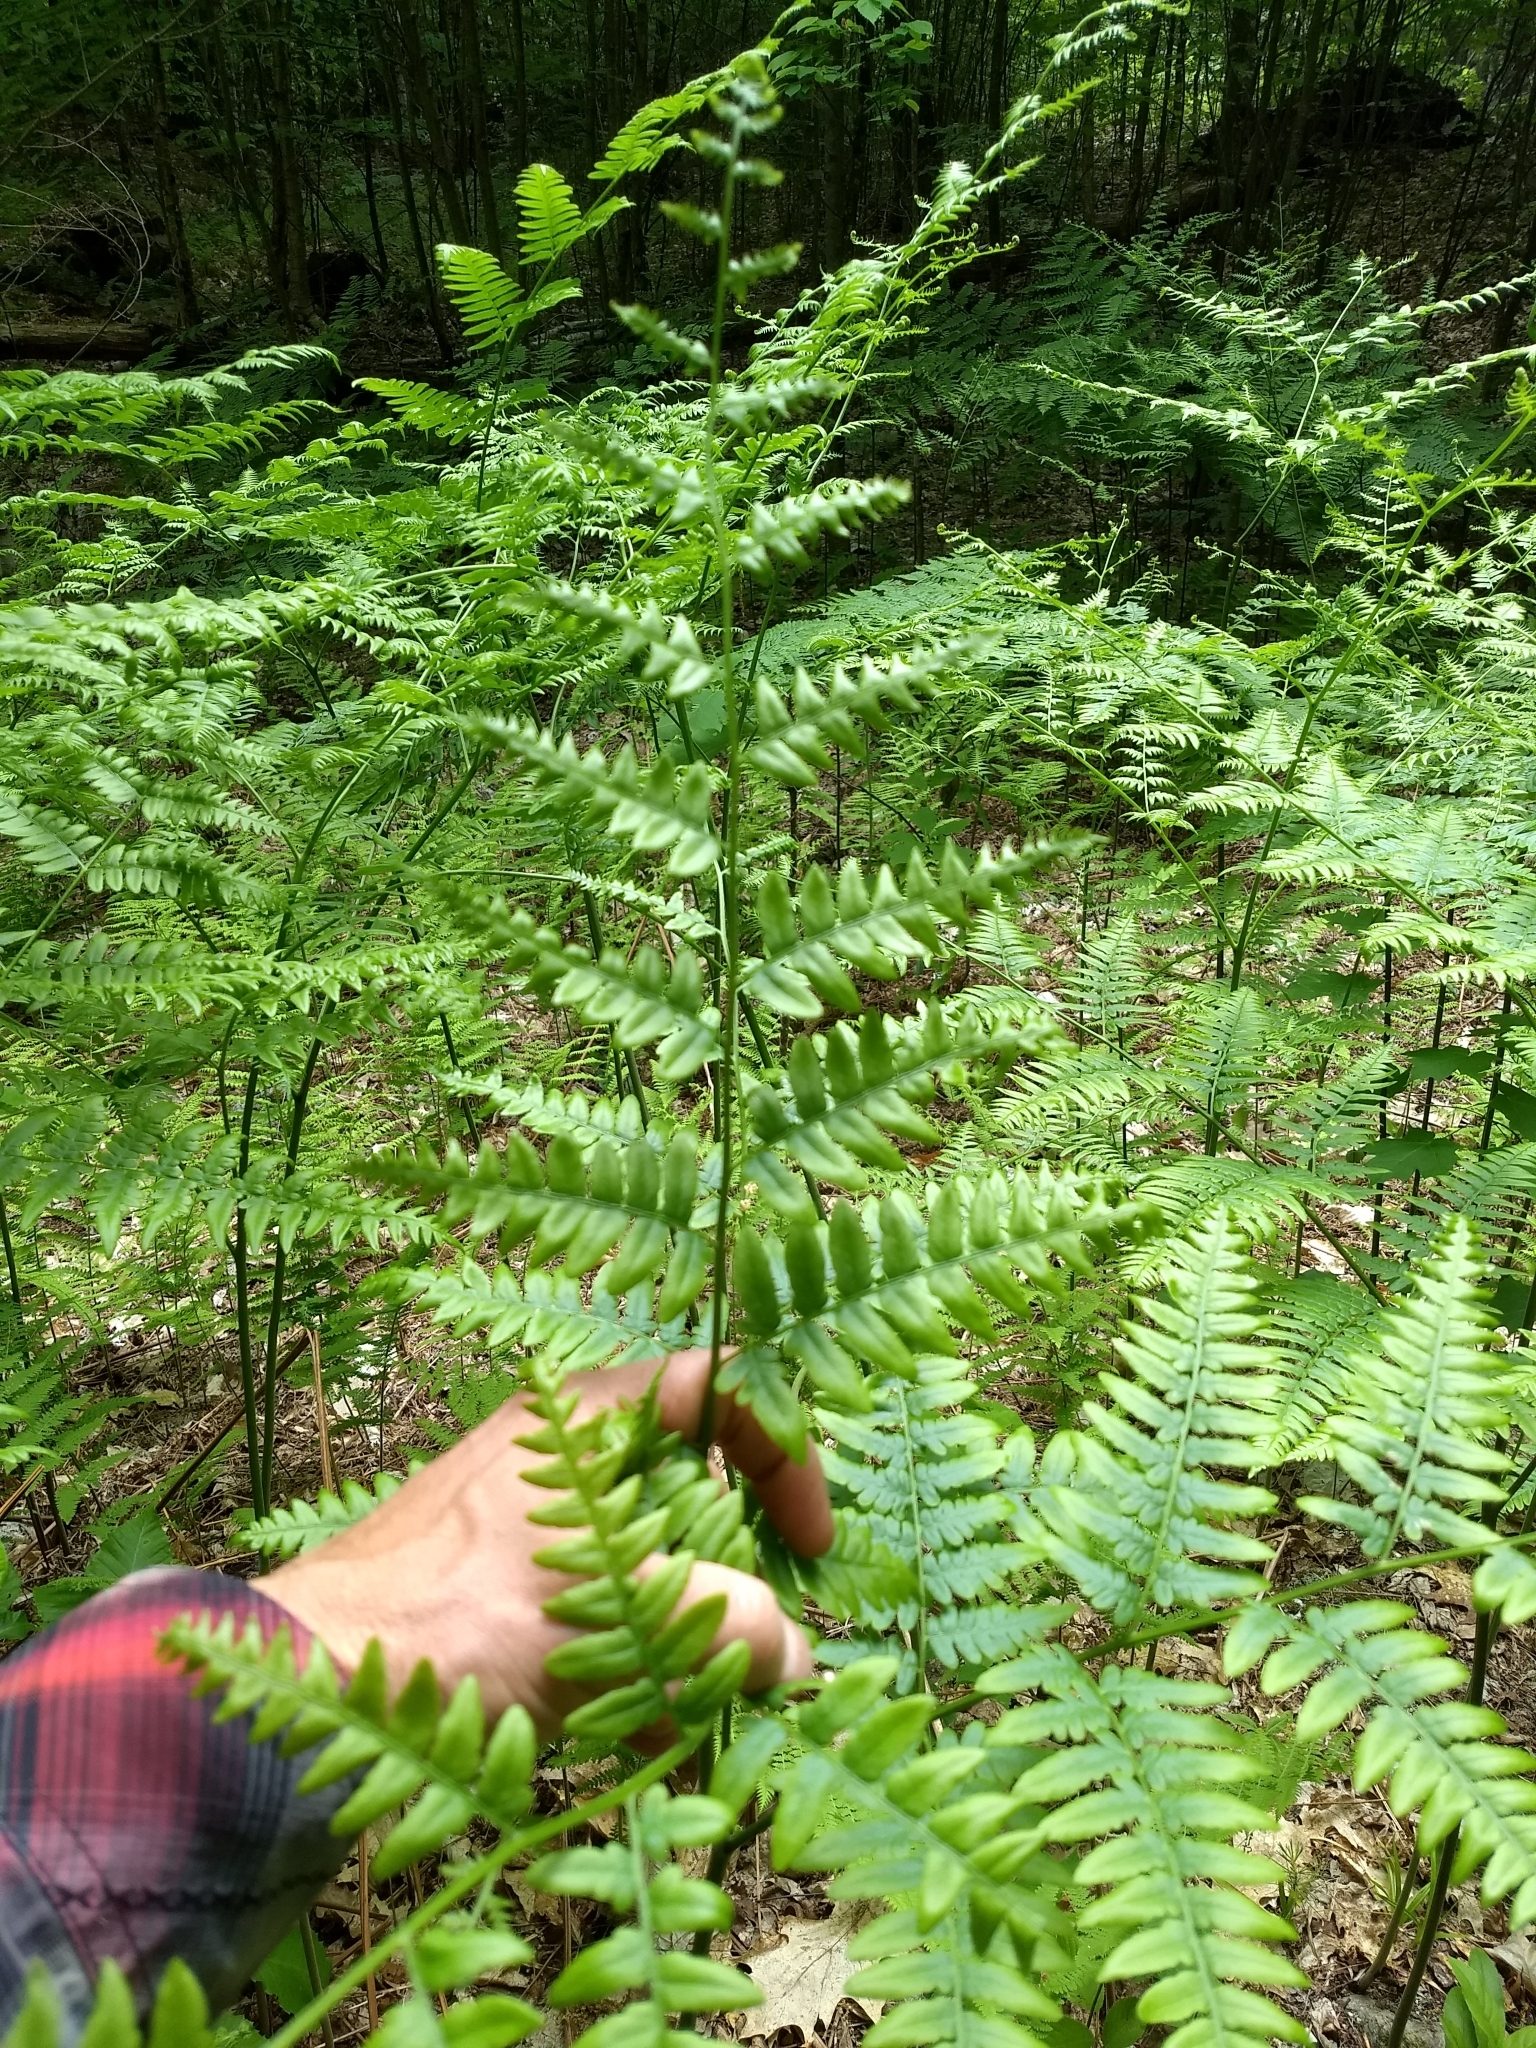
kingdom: Plantae
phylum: Tracheophyta
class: Polypodiopsida
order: Polypodiales
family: Dennstaedtiaceae
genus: Pteridium
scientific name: Pteridium aquilinum
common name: Bracken
